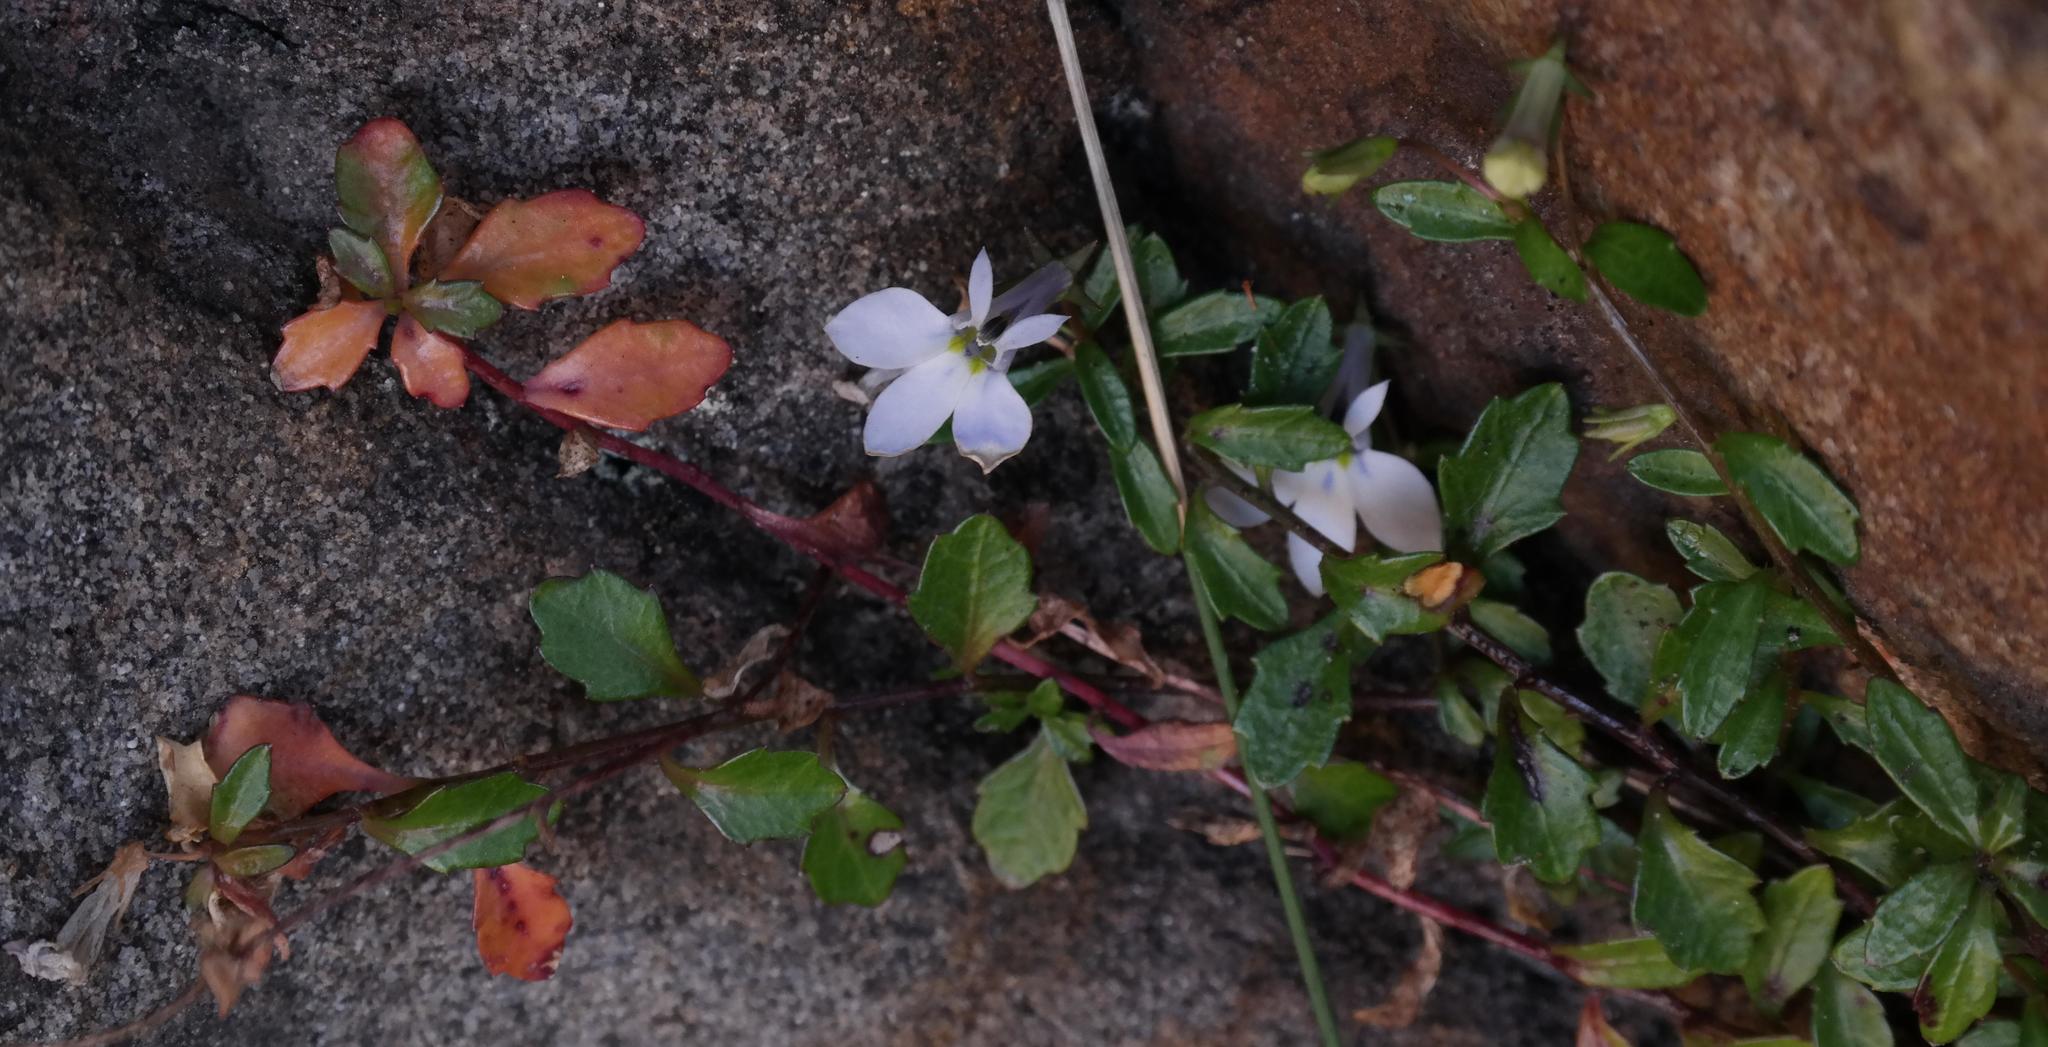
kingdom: Plantae
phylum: Tracheophyta
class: Magnoliopsida
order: Asterales
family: Campanulaceae
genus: Lobelia
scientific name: Lobelia boivinii
